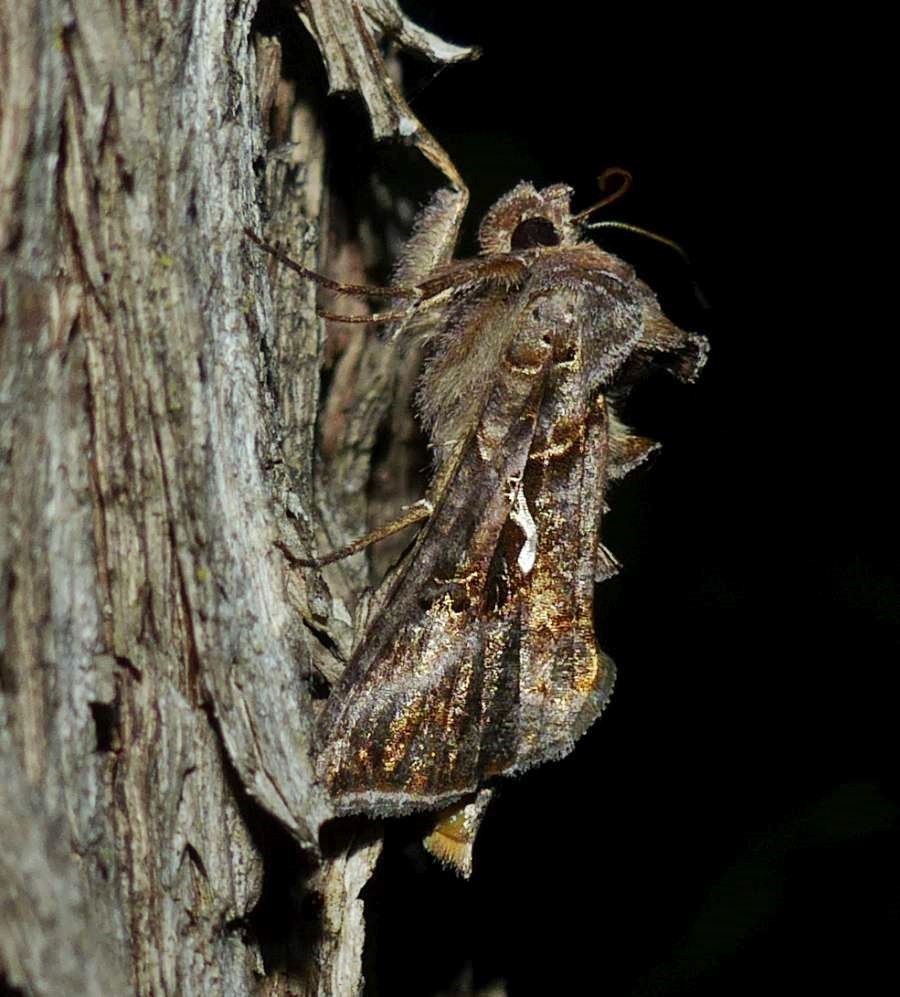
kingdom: Animalia
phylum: Arthropoda
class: Insecta
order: Lepidoptera
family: Noctuidae
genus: Autographa
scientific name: Autographa precationis
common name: Common looper moth
